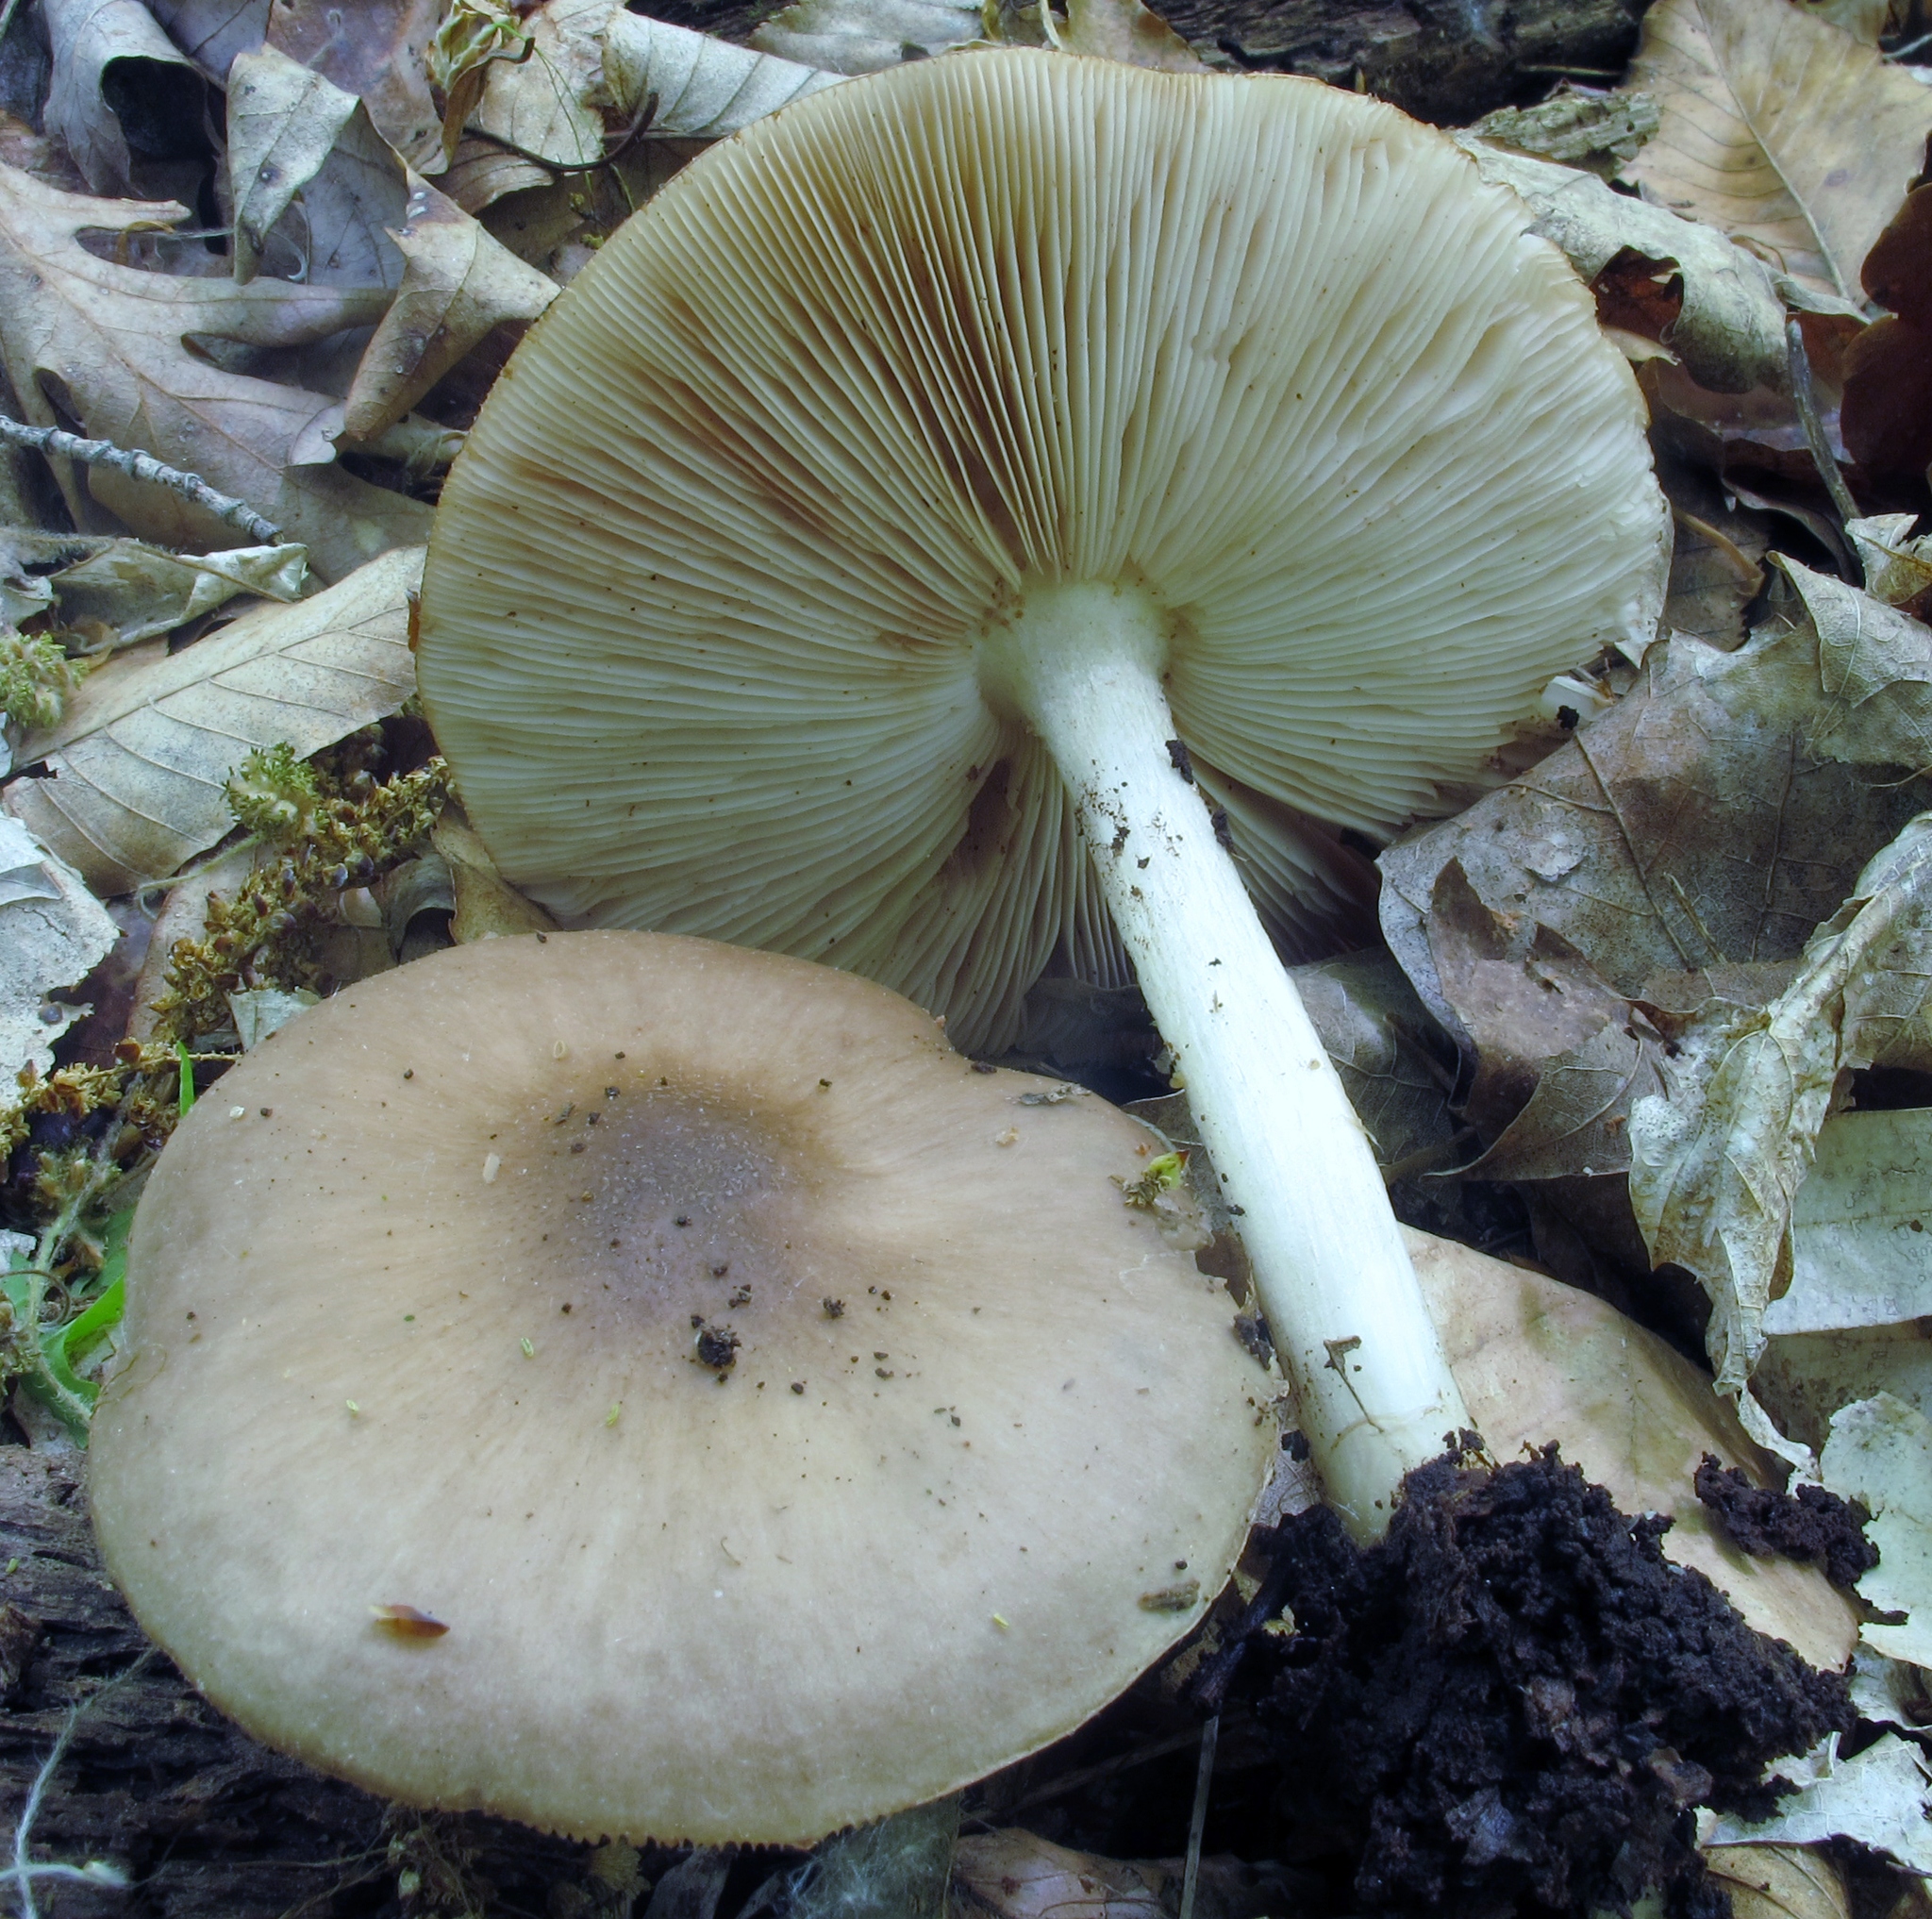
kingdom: Fungi
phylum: Basidiomycota
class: Agaricomycetes
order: Agaricales
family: Pluteaceae
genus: Pluteus
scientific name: Pluteus cervinus
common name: Deer shield
